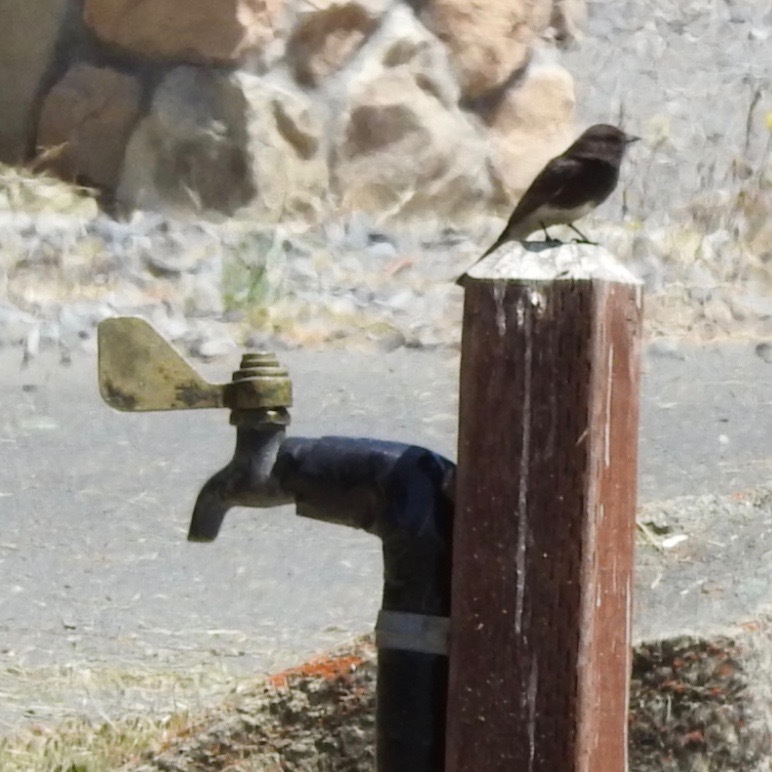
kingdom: Animalia
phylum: Chordata
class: Aves
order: Passeriformes
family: Tyrannidae
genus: Sayornis
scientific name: Sayornis nigricans
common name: Black phoebe
